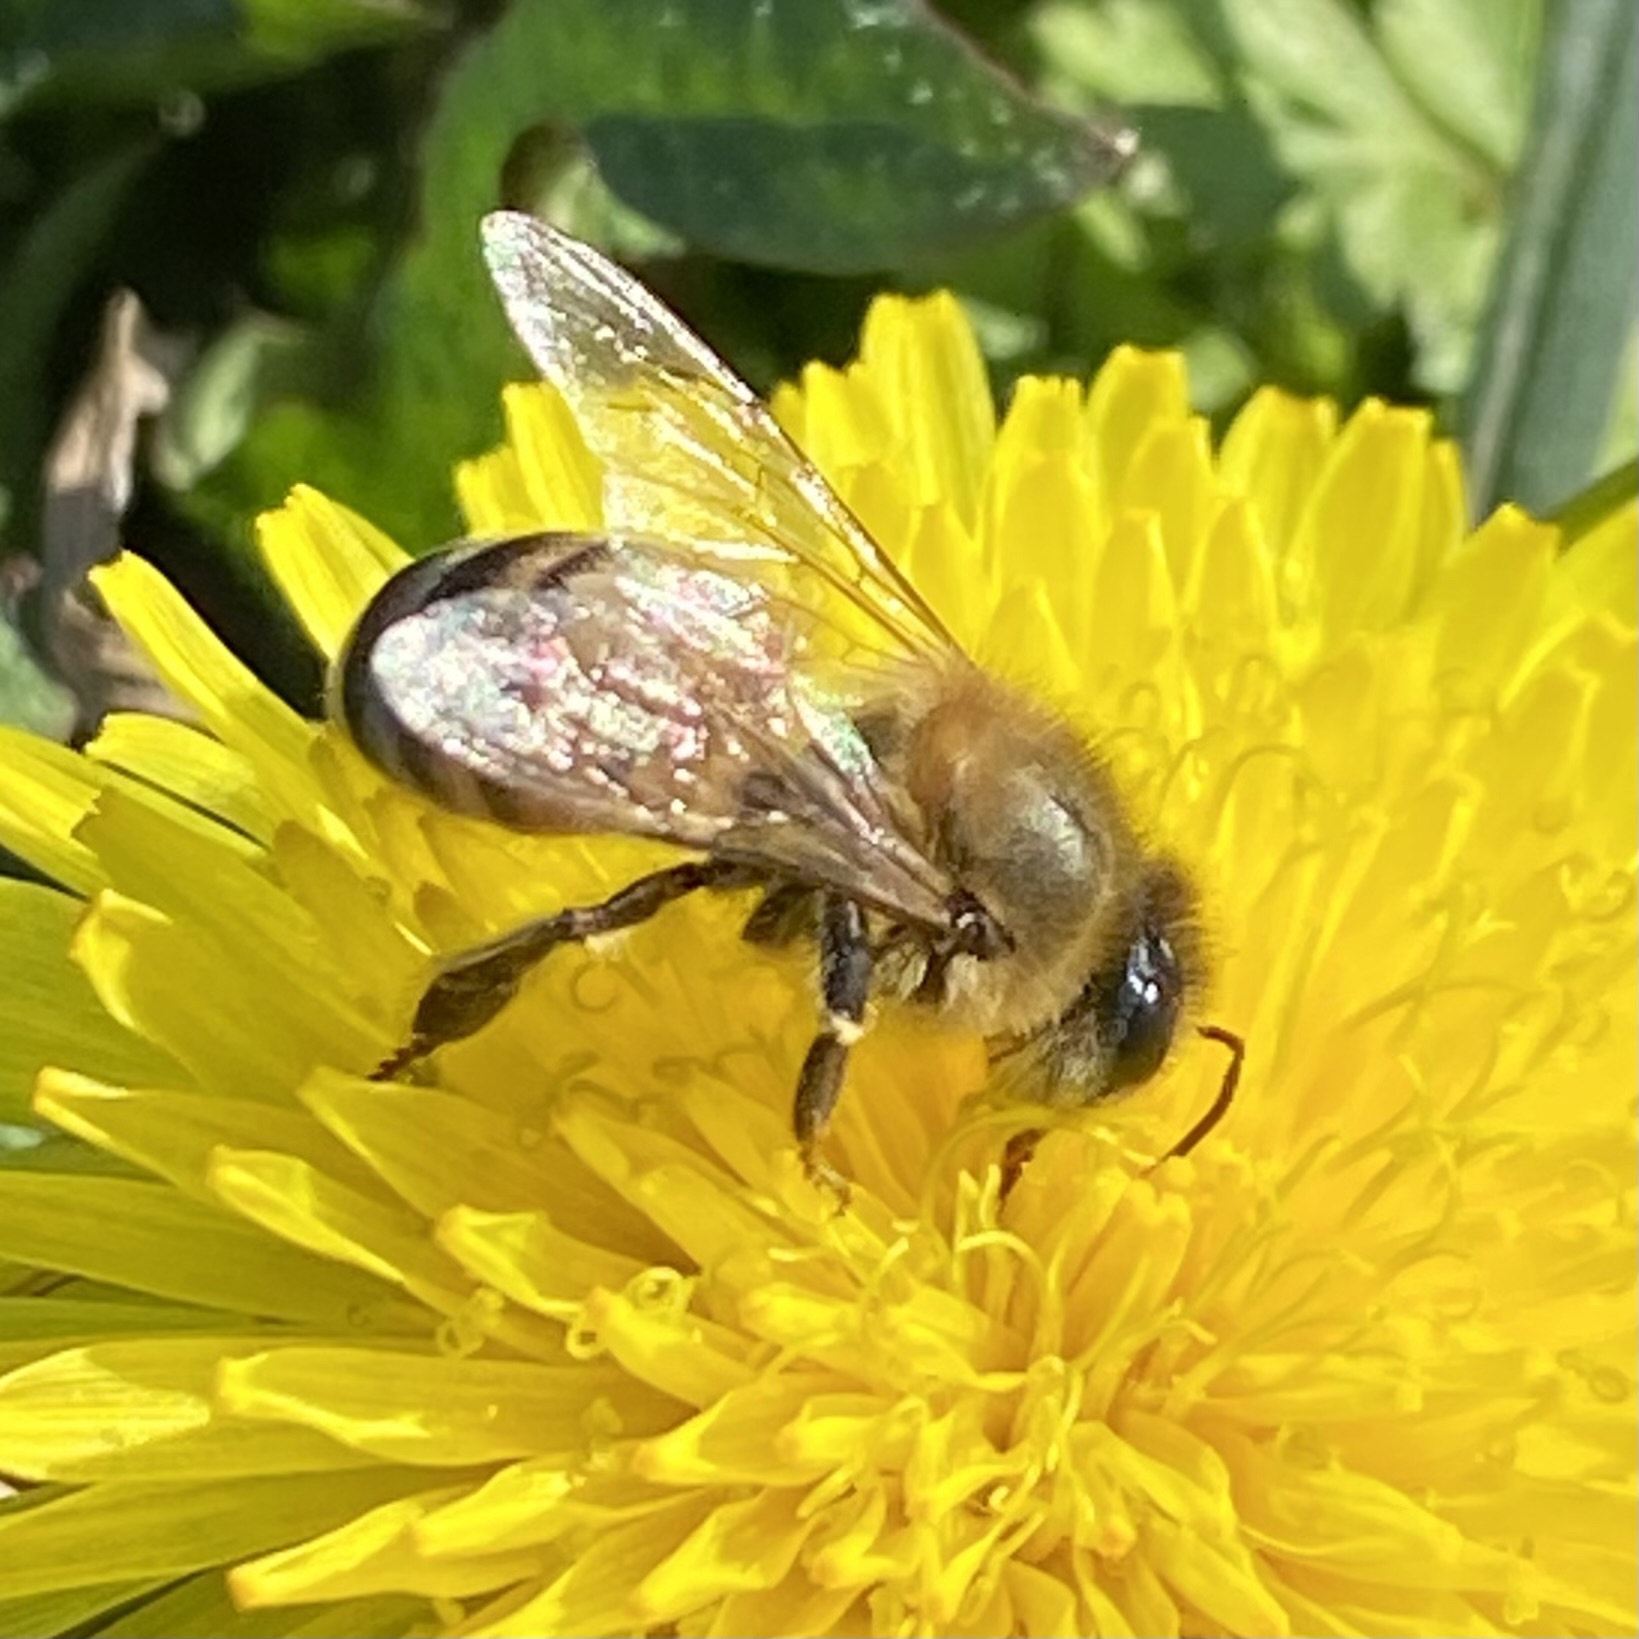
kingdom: Animalia
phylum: Arthropoda
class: Insecta
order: Hymenoptera
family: Apidae
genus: Apis
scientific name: Apis mellifera
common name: Honey bee
